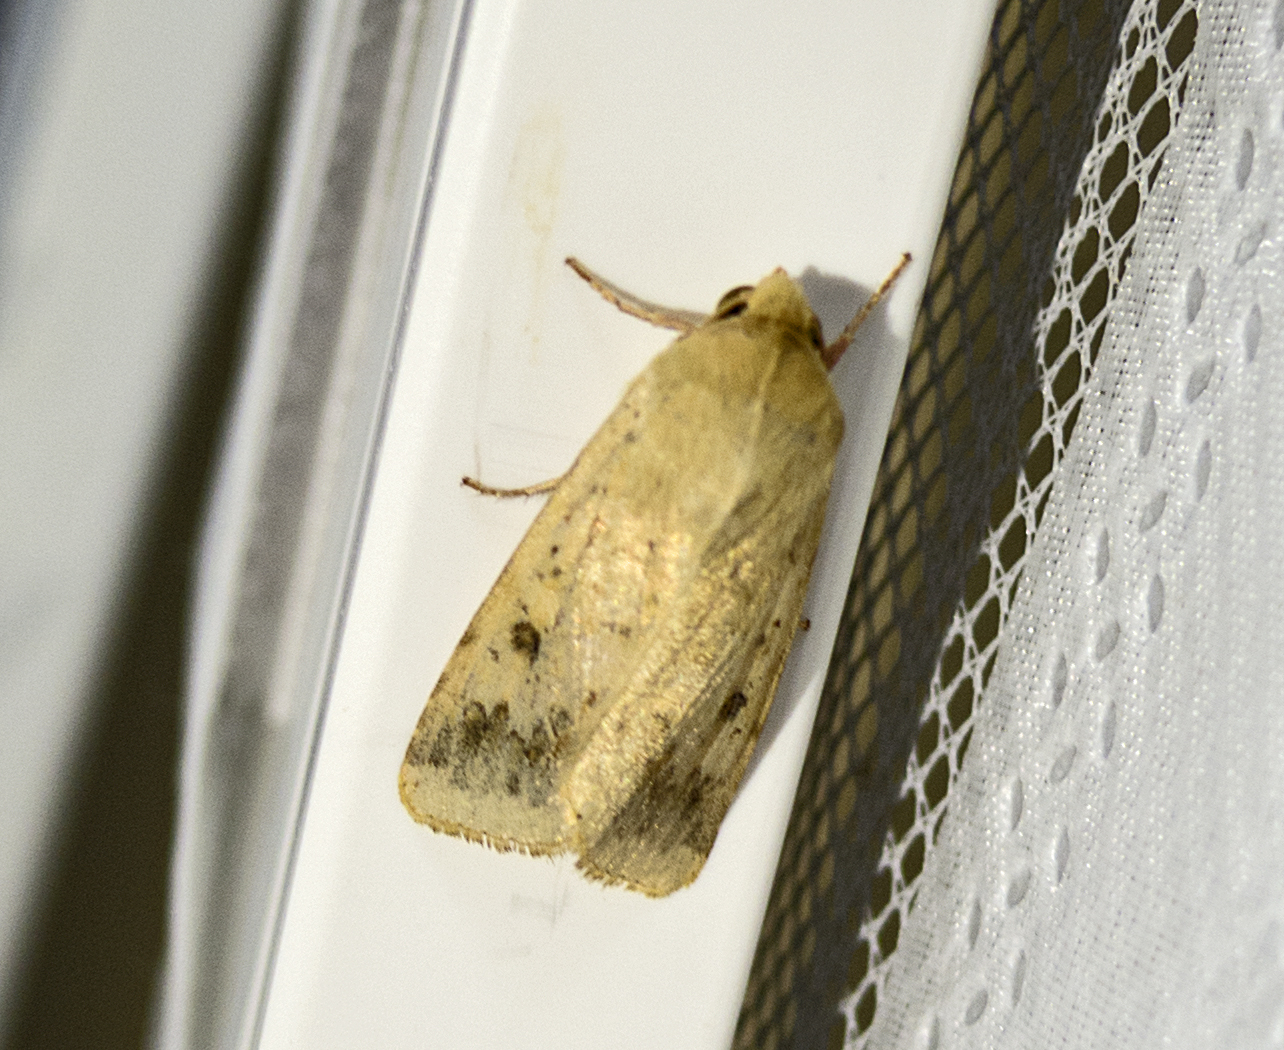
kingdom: Animalia
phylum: Arthropoda
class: Insecta
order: Lepidoptera
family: Noctuidae
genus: Helicoverpa
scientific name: Helicoverpa armigera
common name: Cotton bollworm
